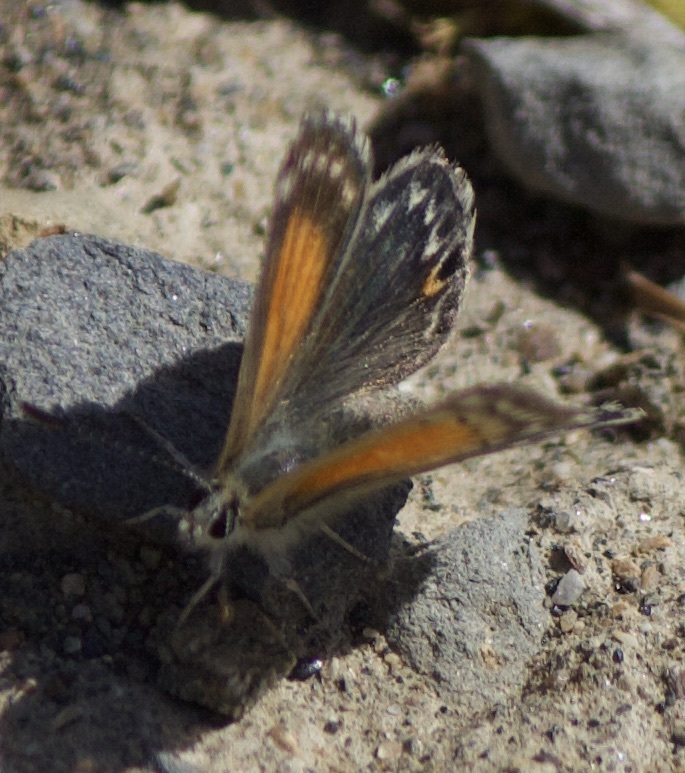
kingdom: Animalia
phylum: Arthropoda
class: Insecta
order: Lepidoptera
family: Lycaenidae
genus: Pseudolucia
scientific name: Pseudolucia chilensis
